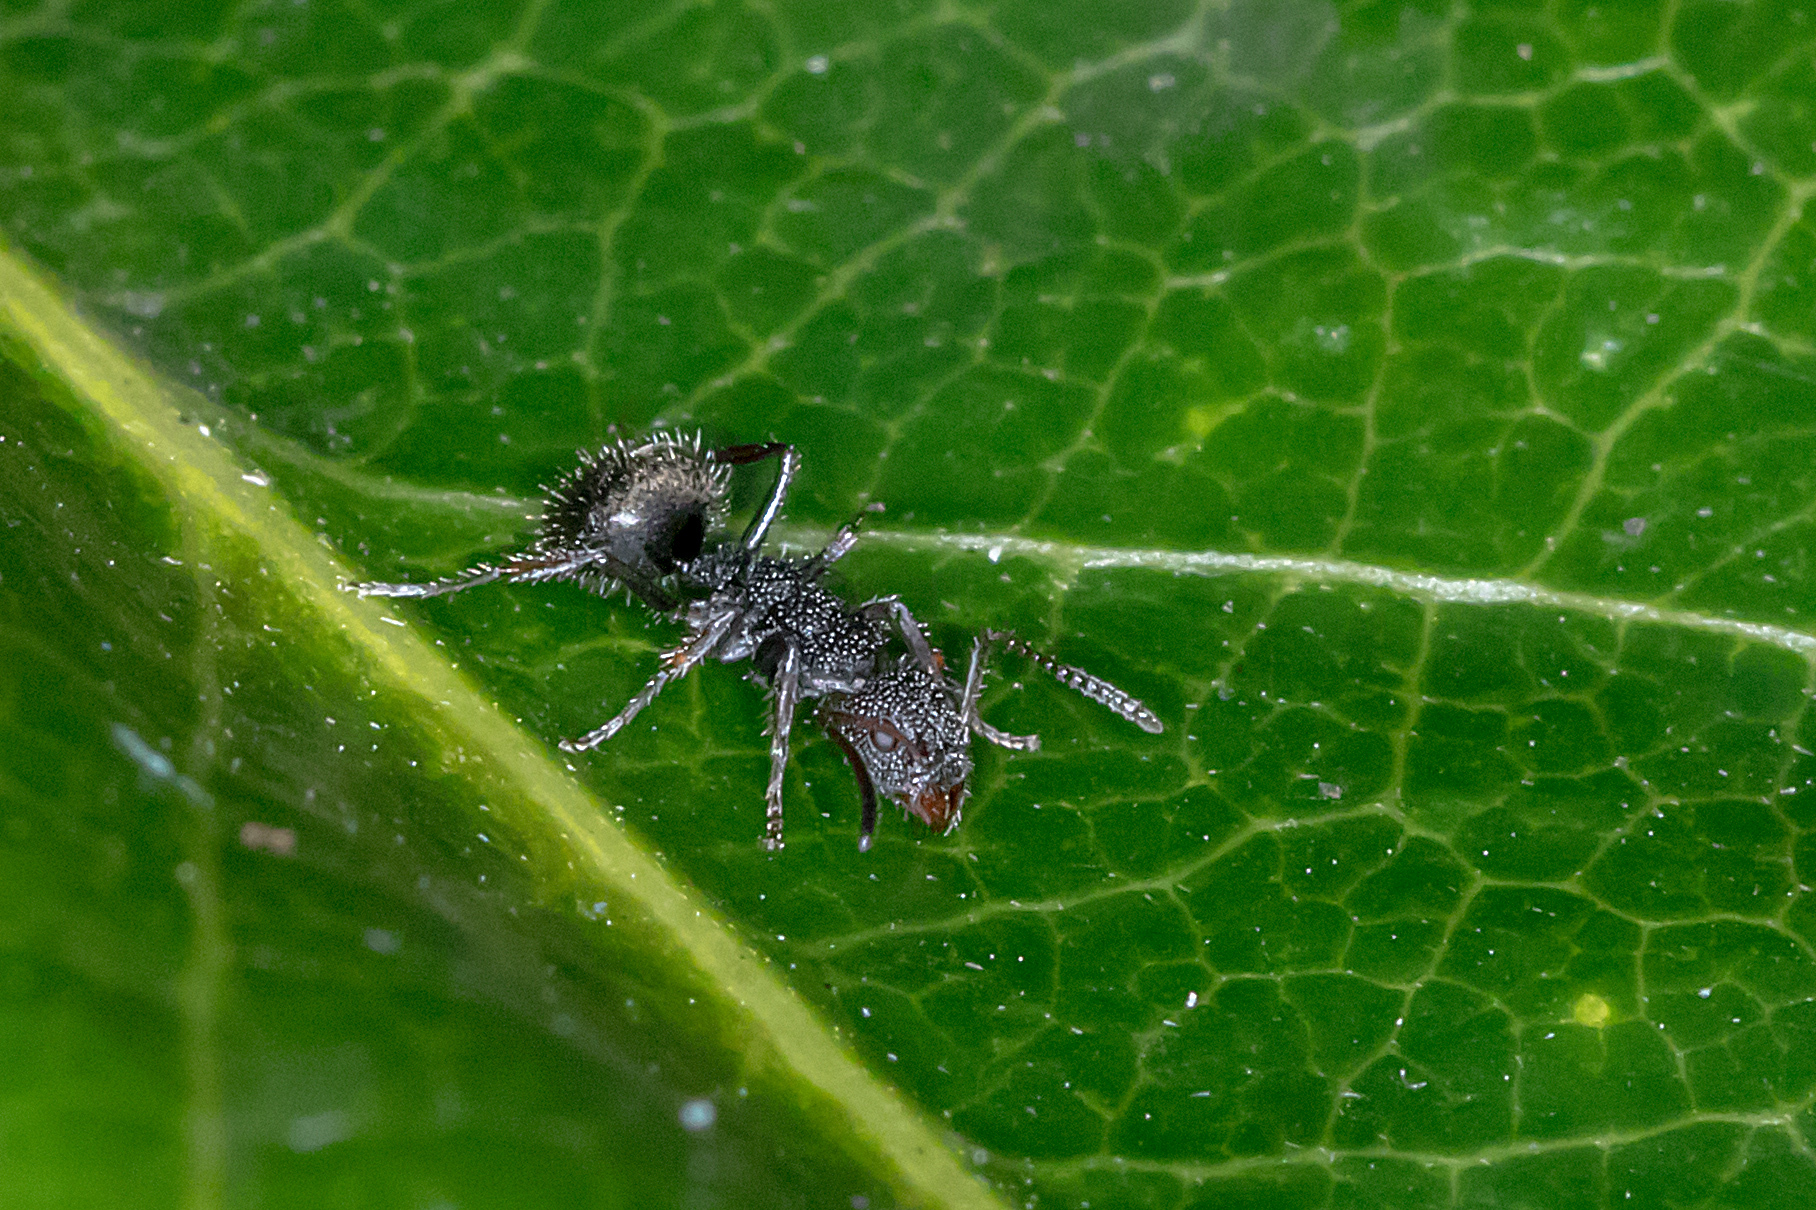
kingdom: Animalia
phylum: Arthropoda
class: Insecta
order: Hymenoptera
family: Formicidae
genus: Dolichoderus
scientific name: Dolichoderus scrobiculatus
